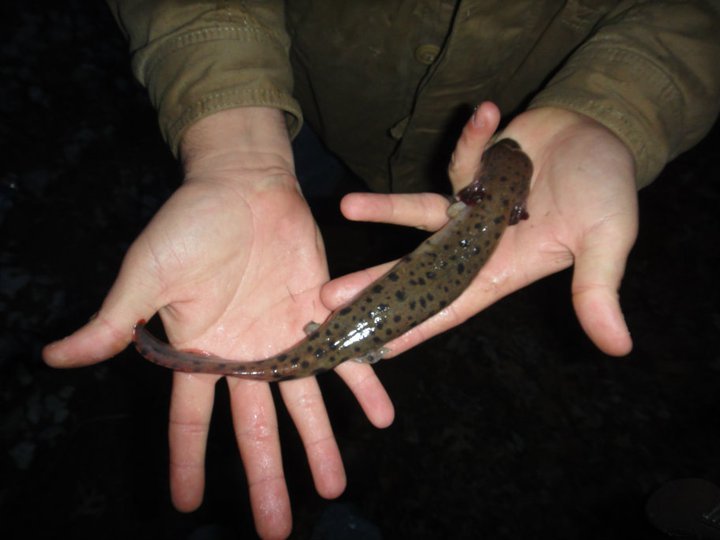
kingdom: Animalia
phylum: Chordata
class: Amphibia
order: Caudata
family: Proteidae
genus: Necturus
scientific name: Necturus maculosus
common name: Mudpuppy
